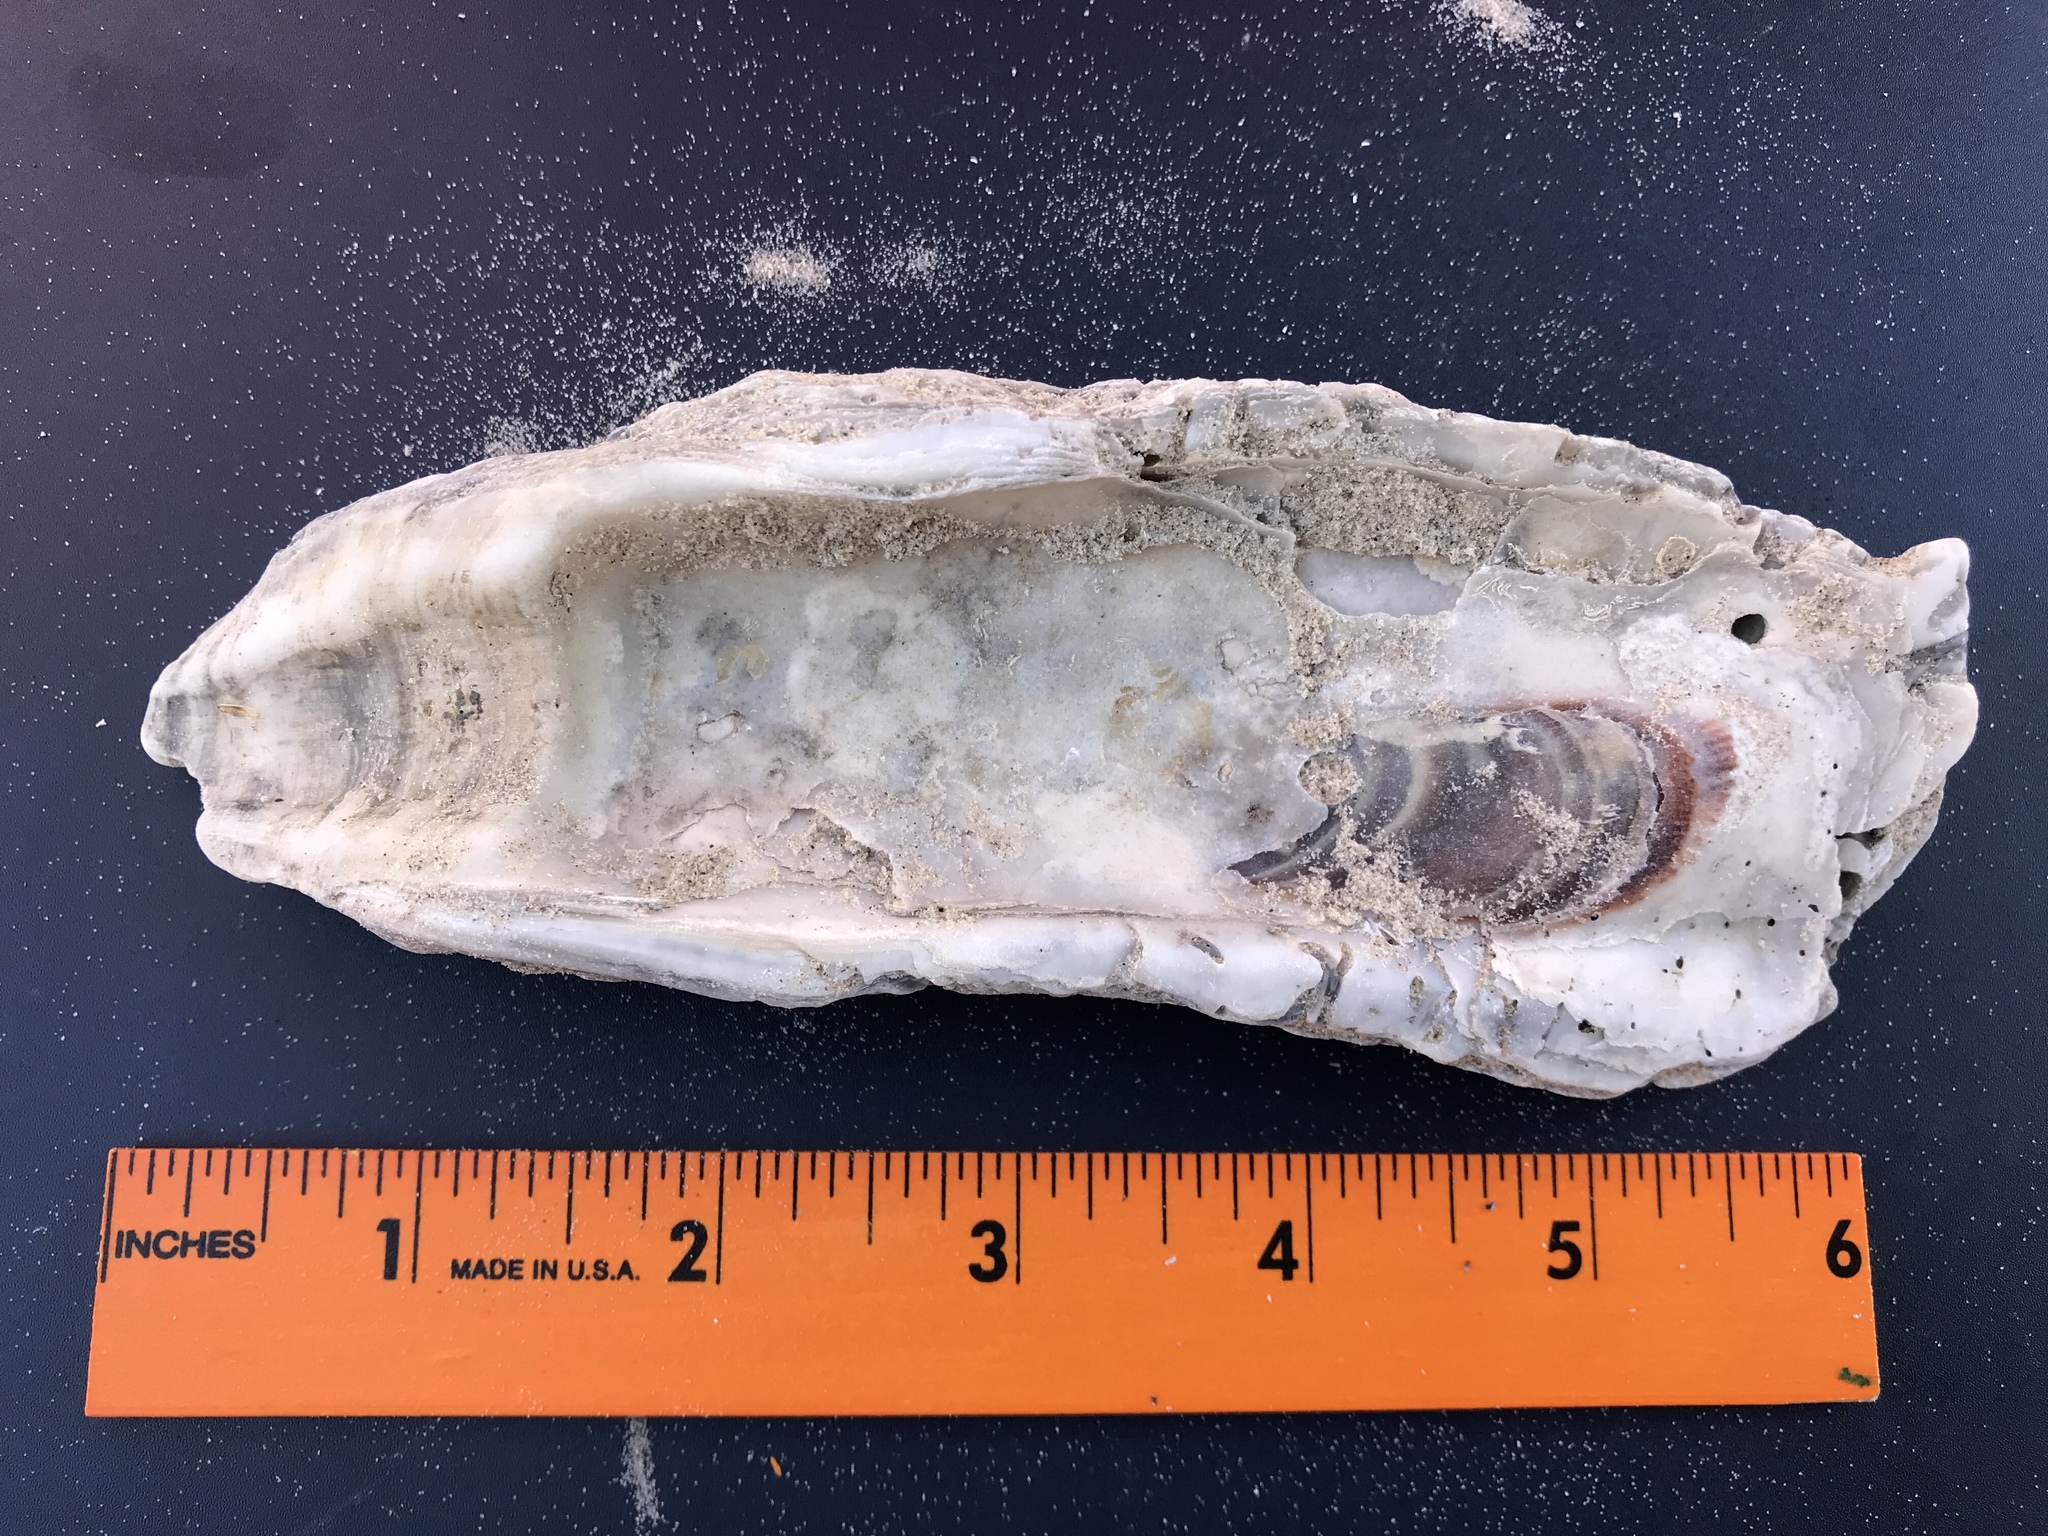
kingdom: Animalia
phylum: Mollusca
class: Bivalvia
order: Ostreida
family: Ostreidae
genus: Crassostrea
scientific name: Crassostrea virginica
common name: American oyster
